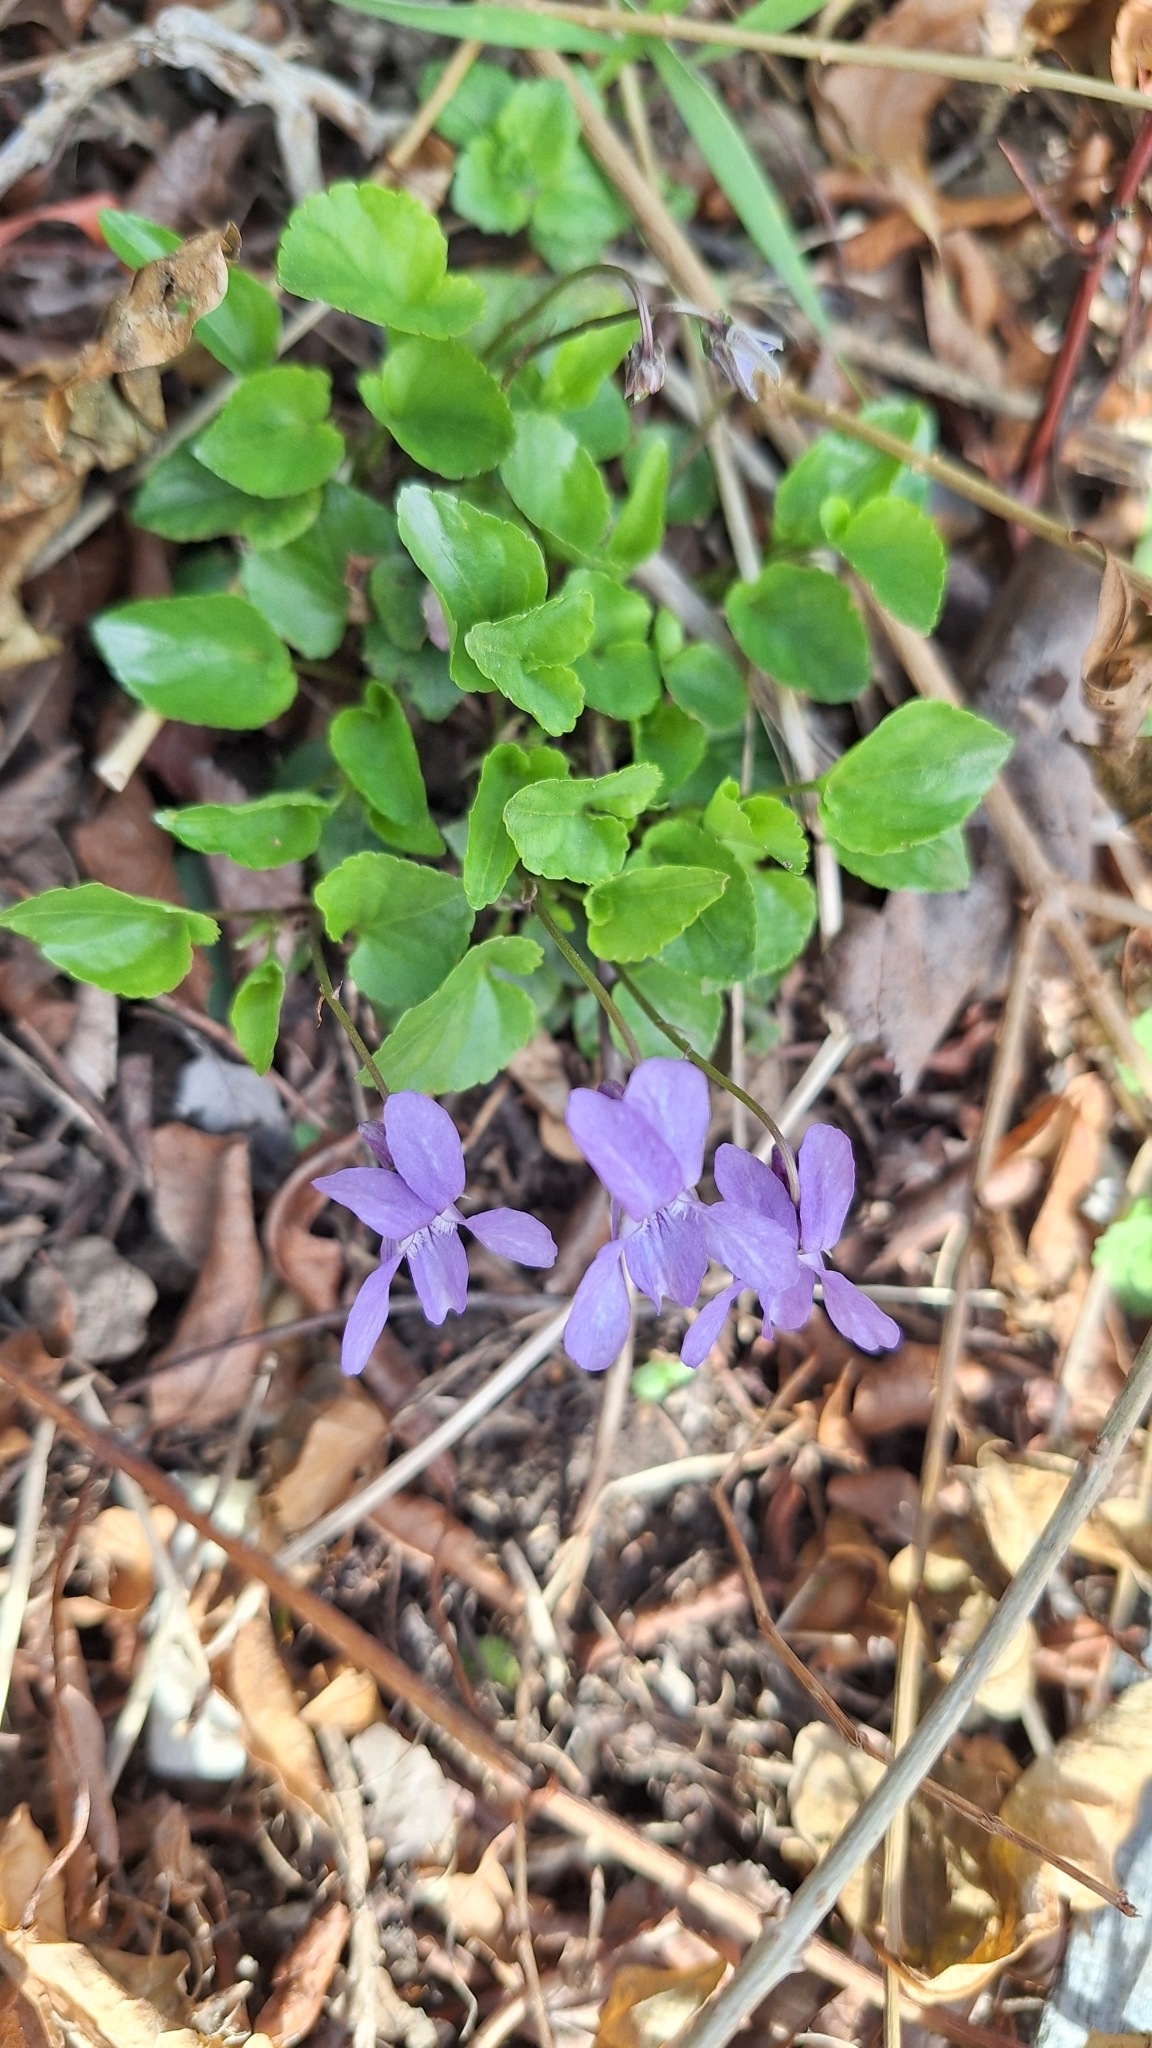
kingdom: Plantae
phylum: Tracheophyta
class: Magnoliopsida
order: Malpighiales
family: Violaceae
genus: Viola
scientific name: Viola reichenbachiana
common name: Early dog-violet
